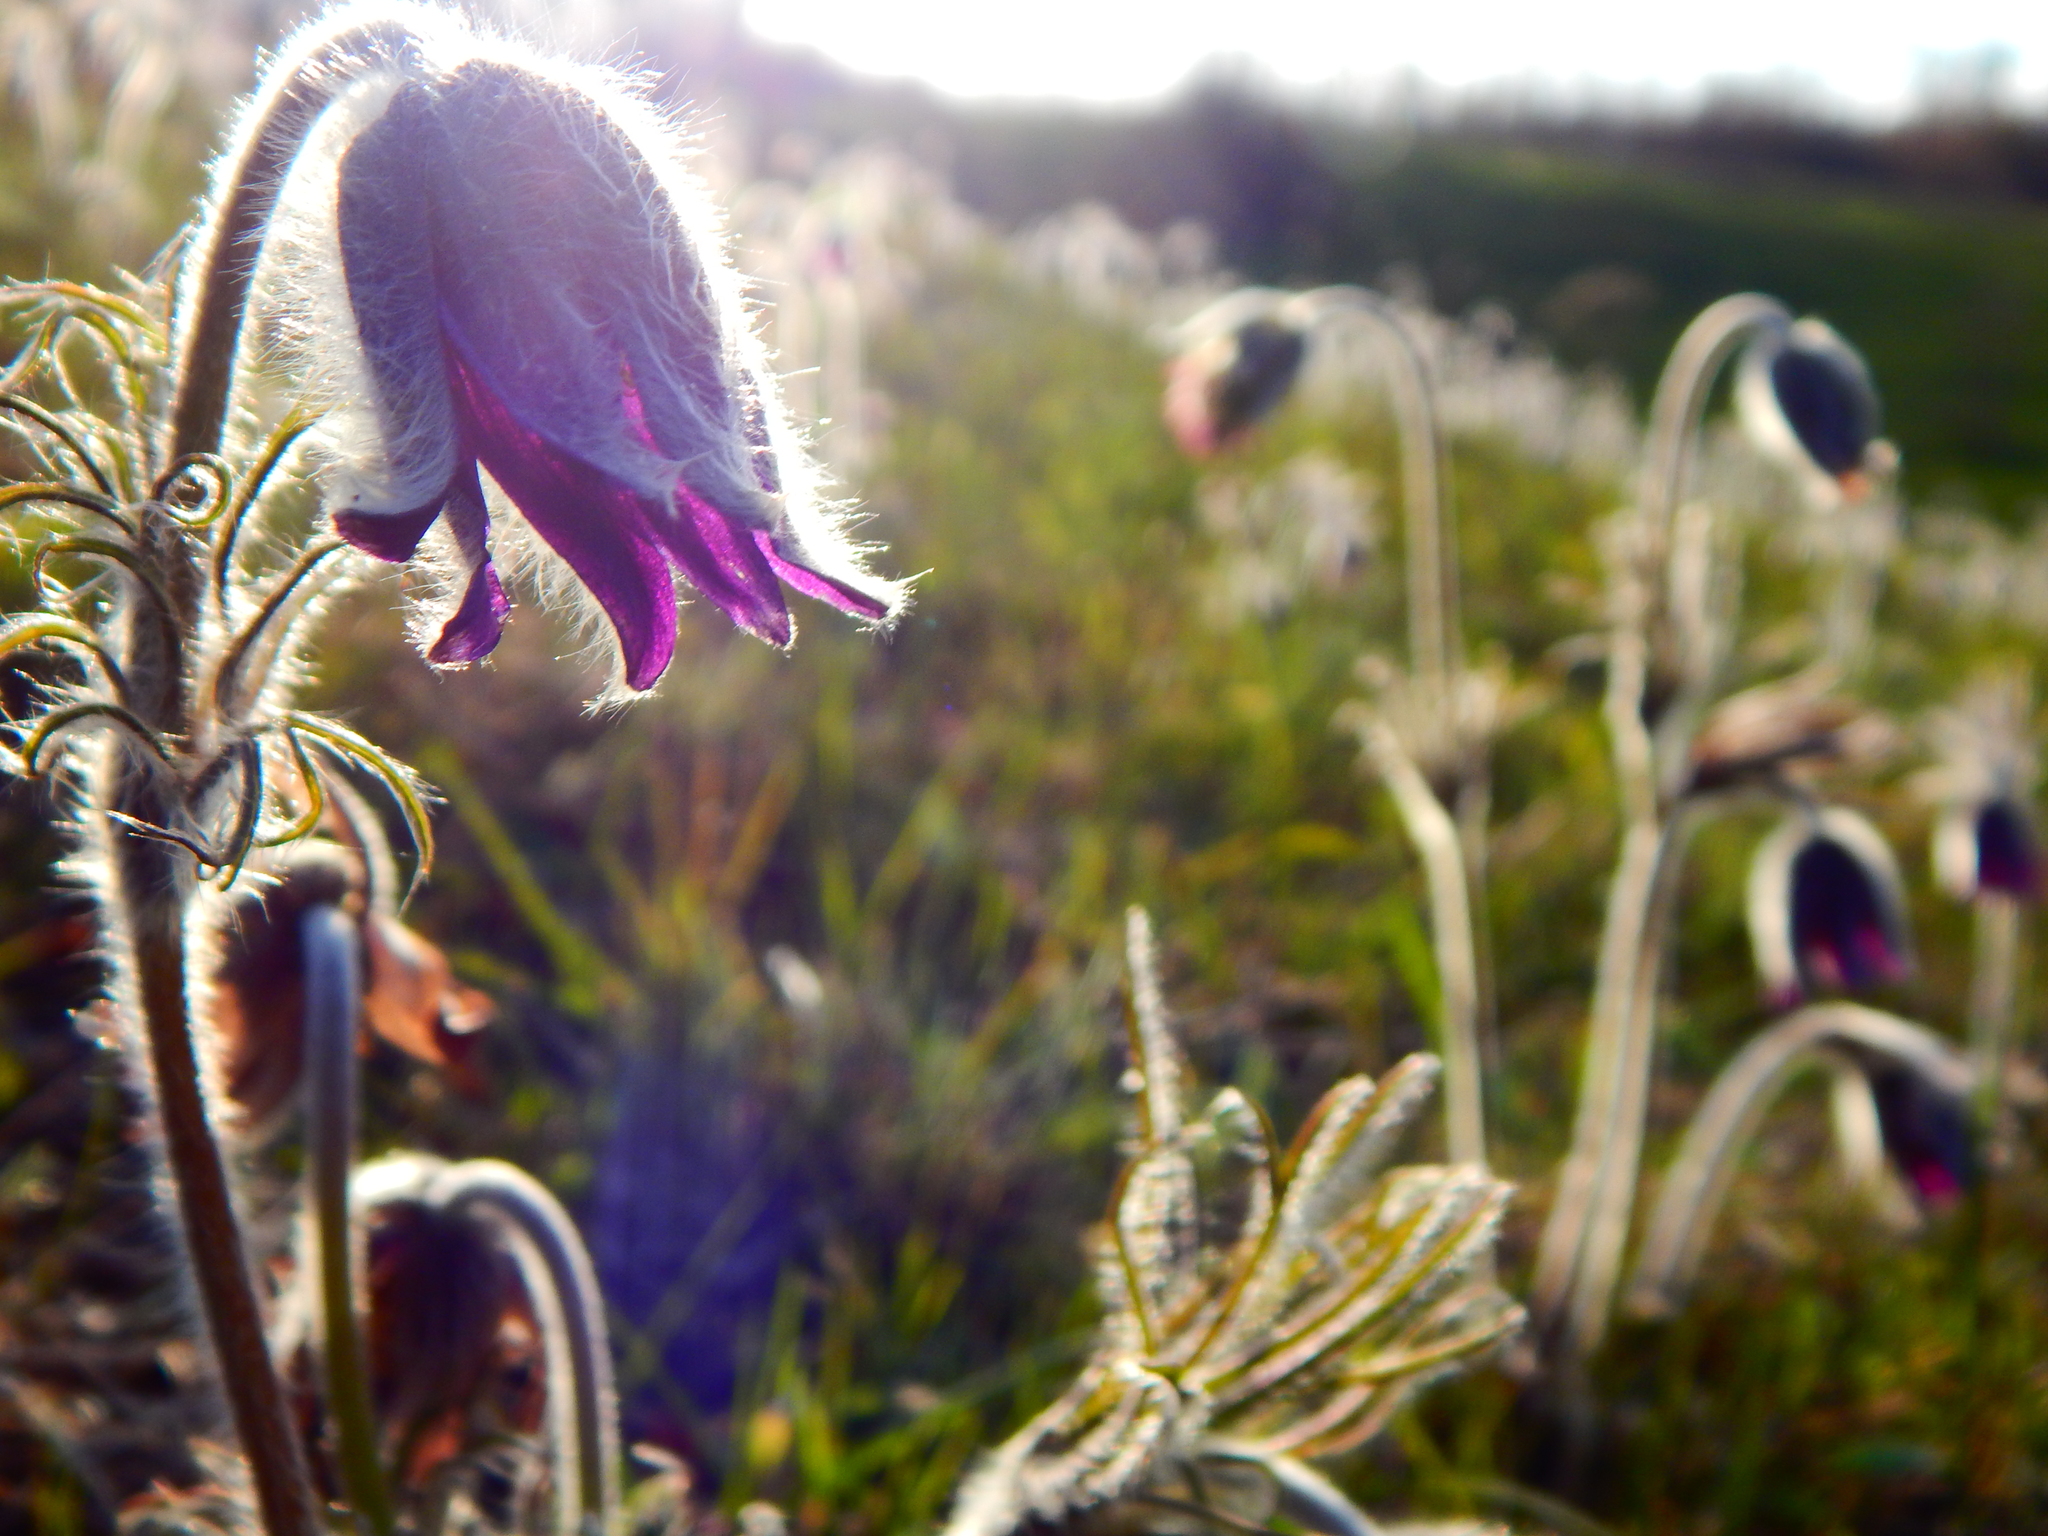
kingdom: Plantae
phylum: Tracheophyta
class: Magnoliopsida
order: Ranunculales
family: Ranunculaceae
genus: Pulsatilla
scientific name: Pulsatilla pratensis
